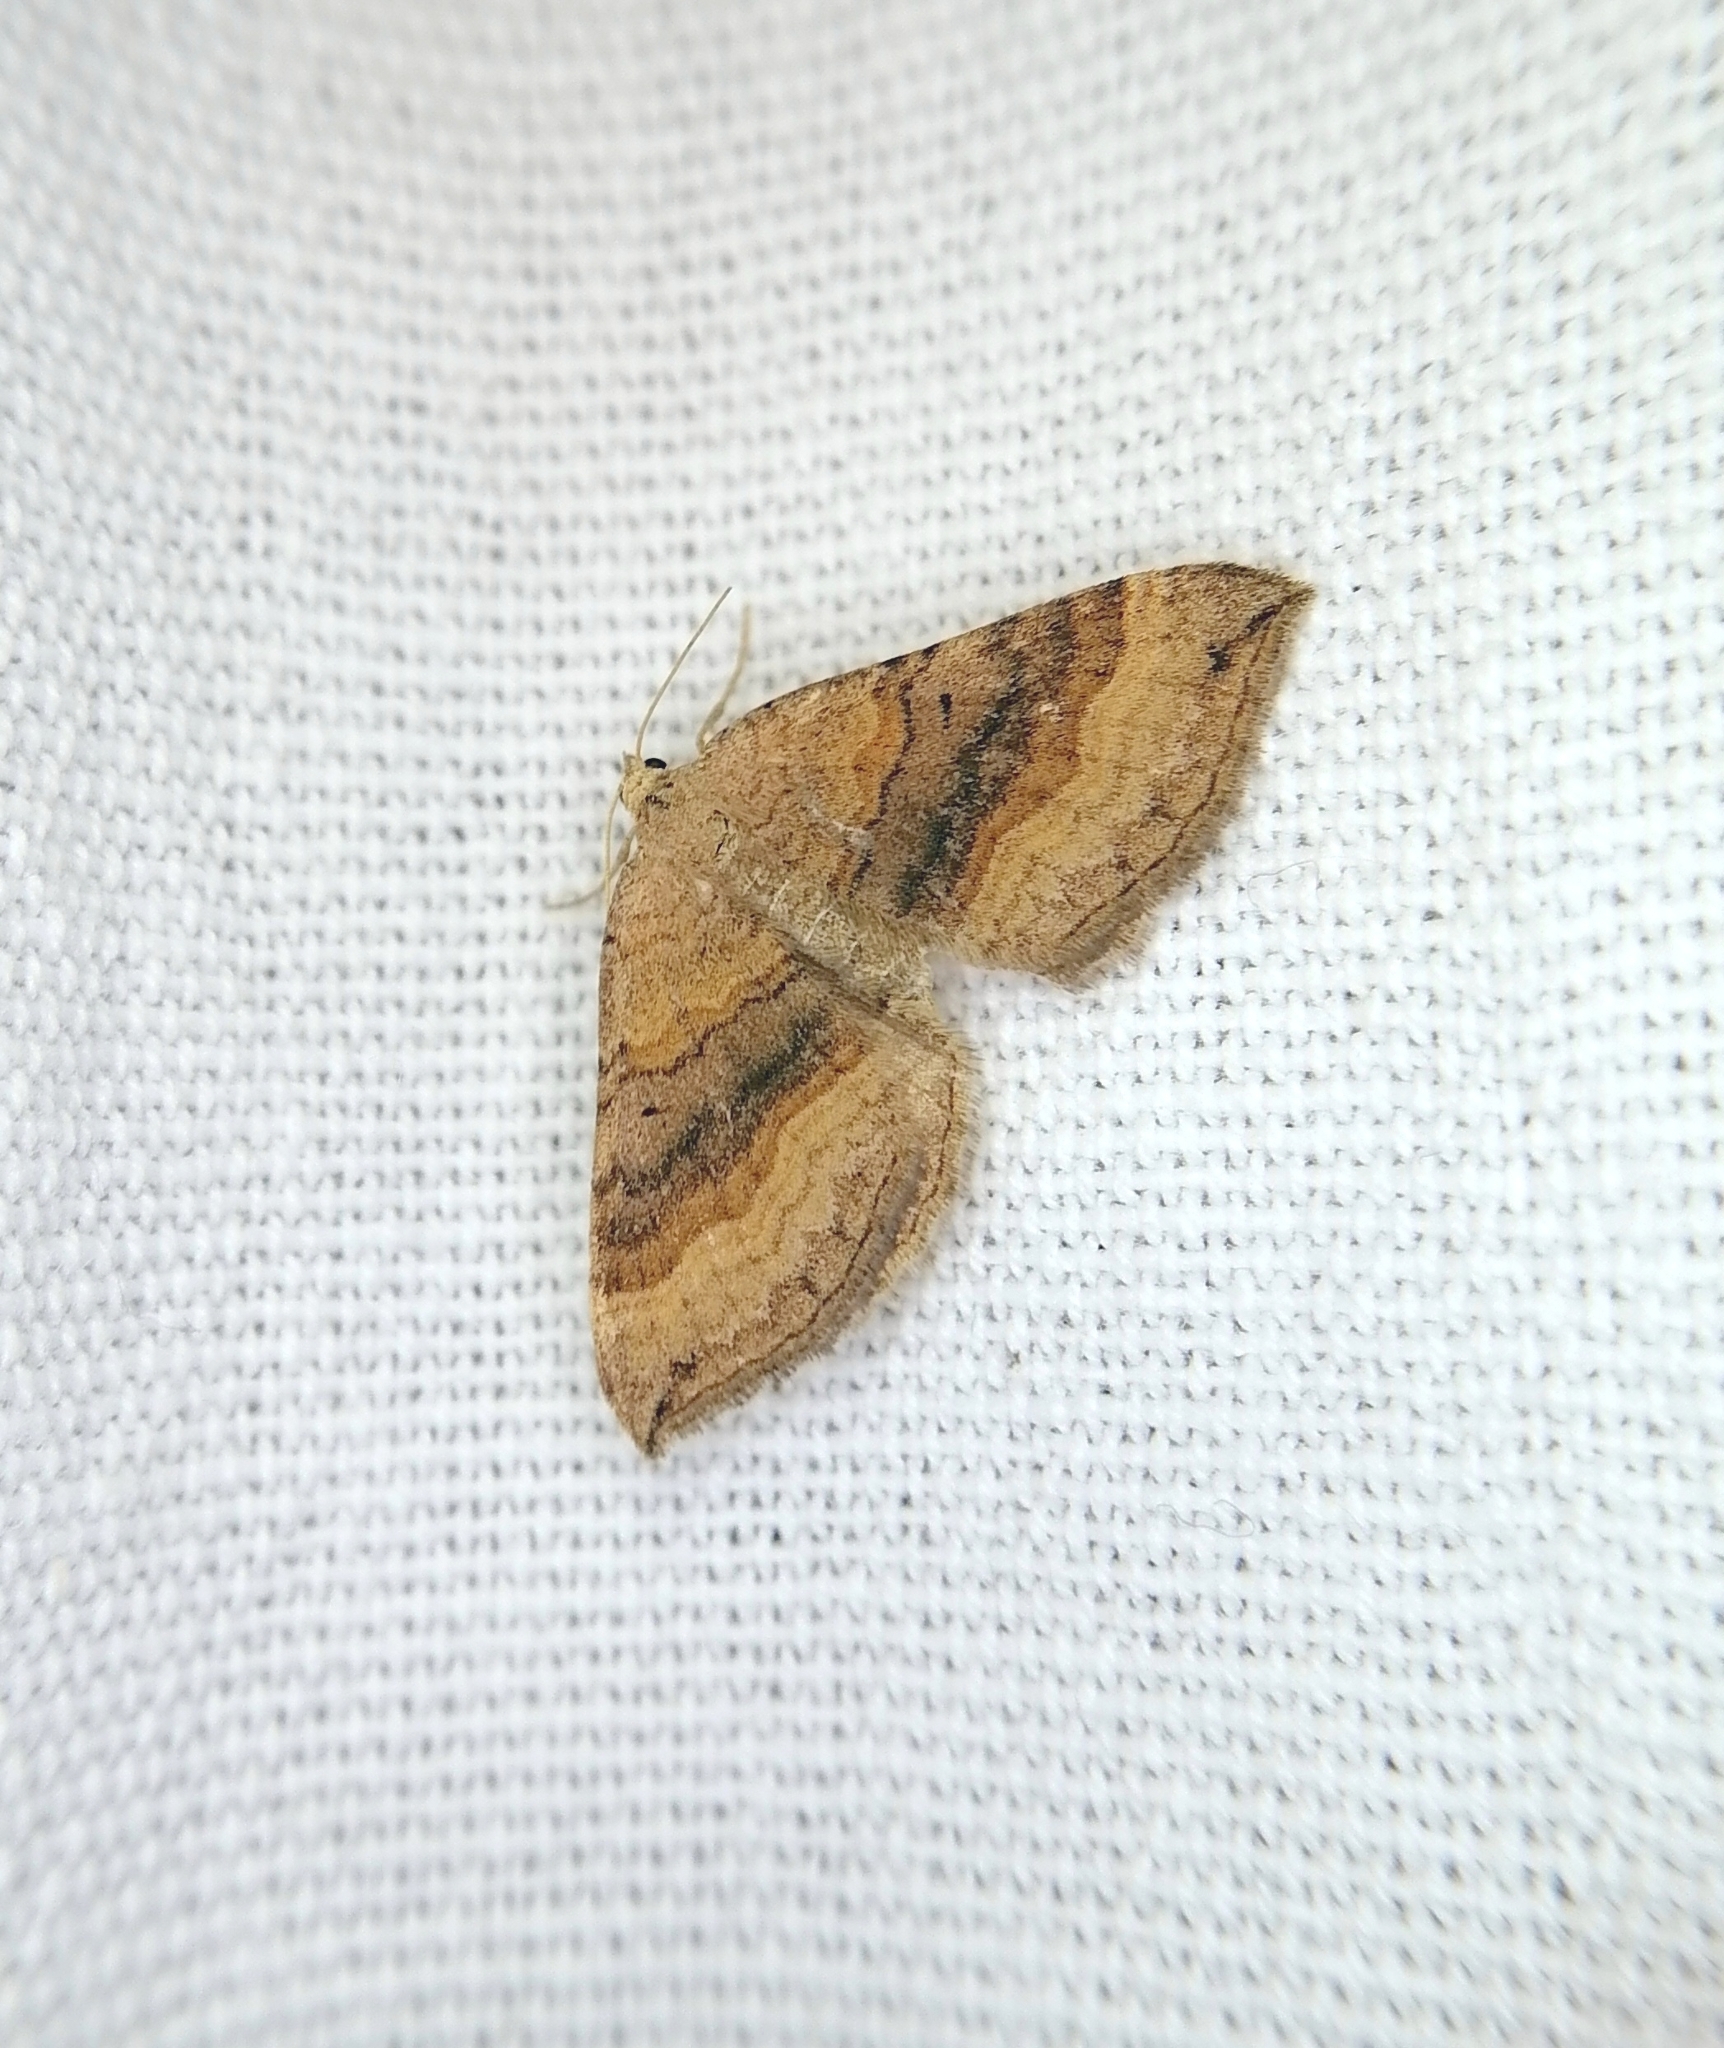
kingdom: Animalia
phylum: Arthropoda
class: Insecta
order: Lepidoptera
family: Geometridae
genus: Scotopteryx
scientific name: Scotopteryx chenopodiata
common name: Shaded broad-bar
